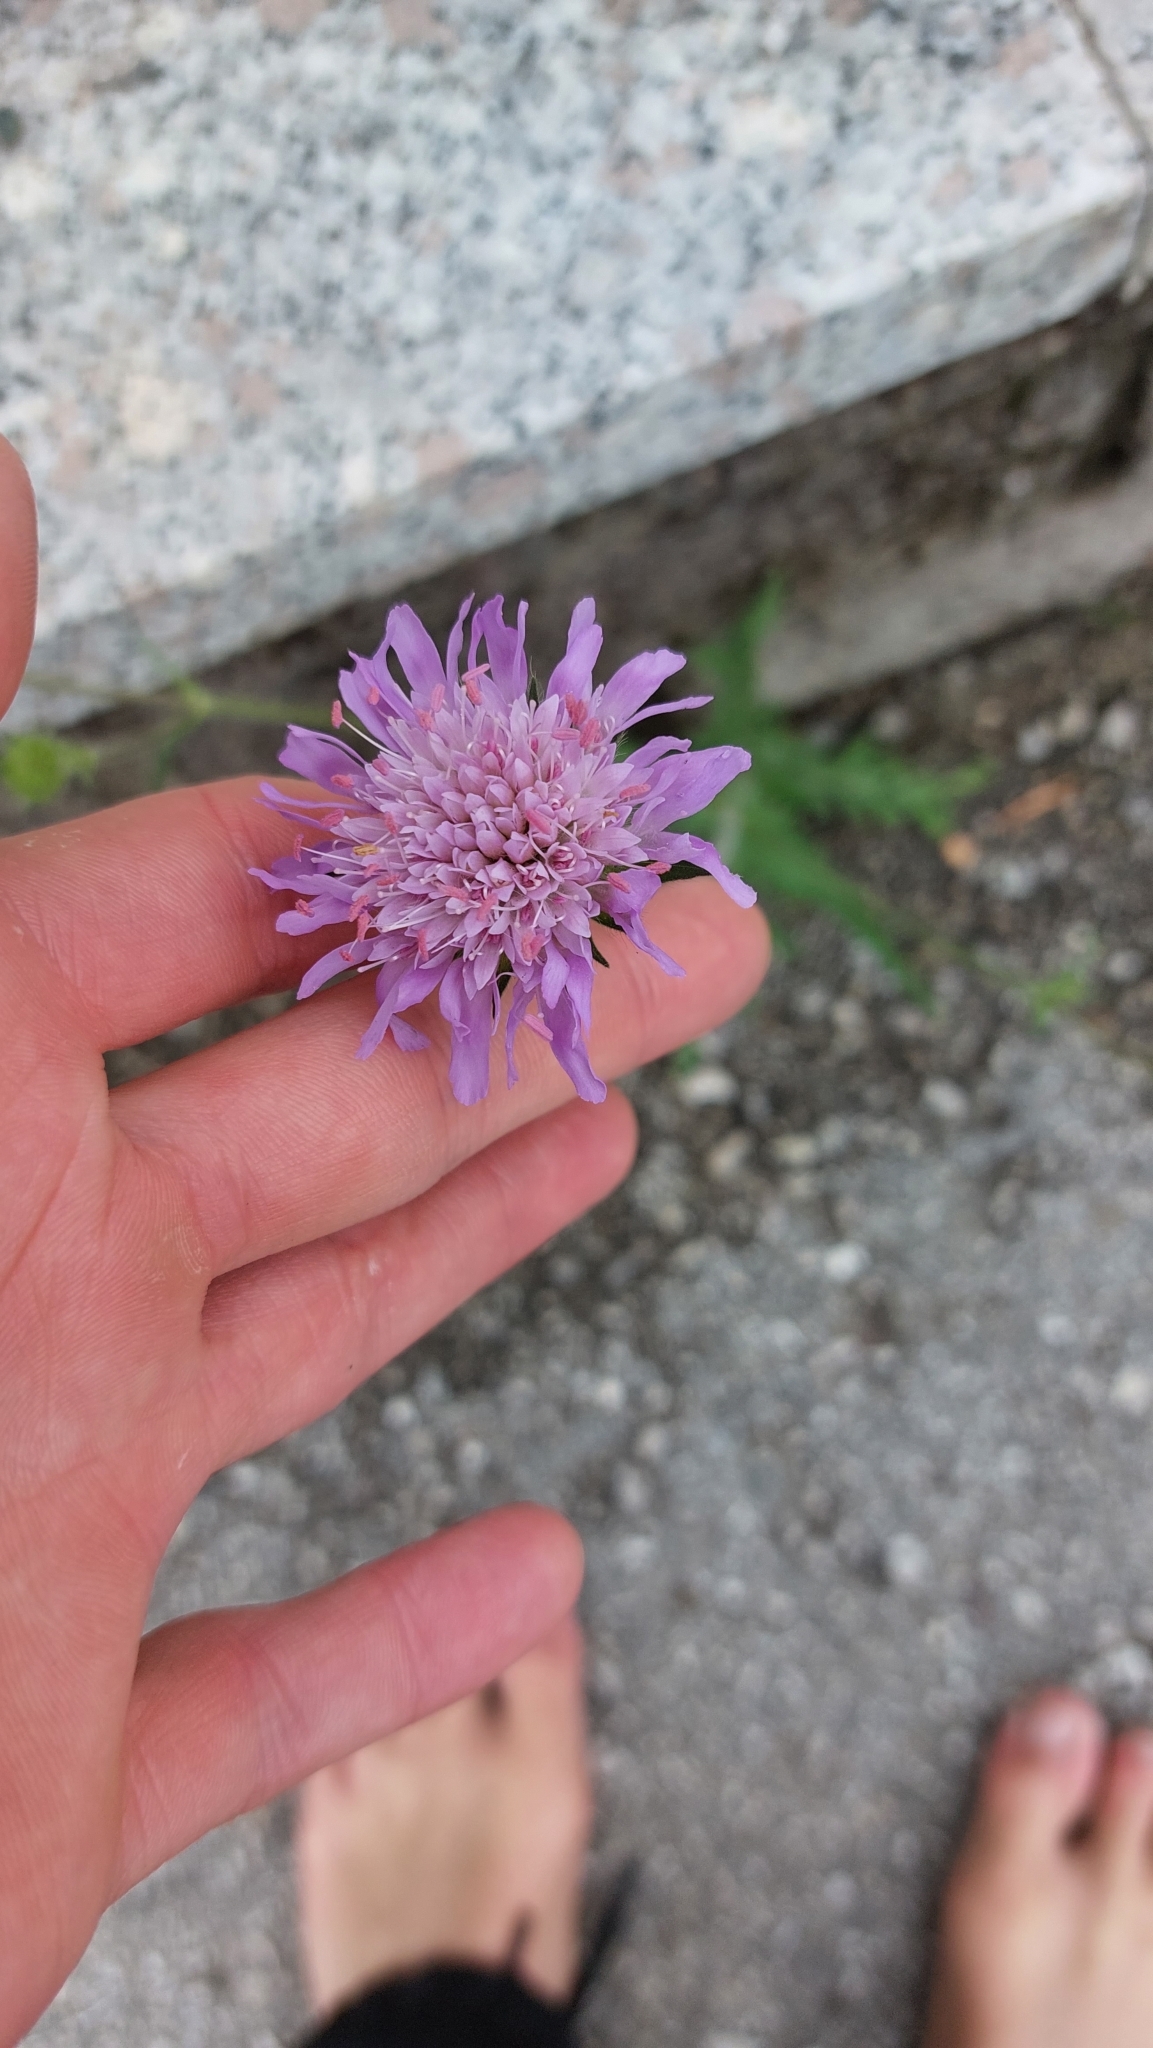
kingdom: Plantae
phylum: Tracheophyta
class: Magnoliopsida
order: Dipsacales
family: Caprifoliaceae
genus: Knautia
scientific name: Knautia arvensis
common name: Field scabiosa
